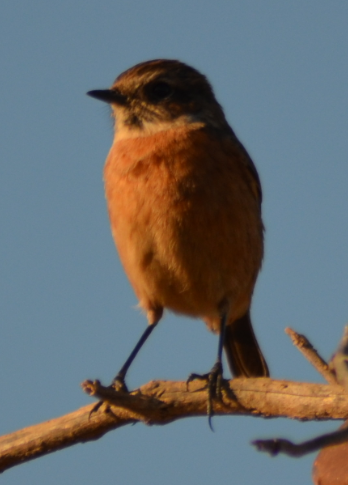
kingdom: Animalia
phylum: Chordata
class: Aves
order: Passeriformes
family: Muscicapidae
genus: Saxicola
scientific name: Saxicola rubicola
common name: European stonechat
